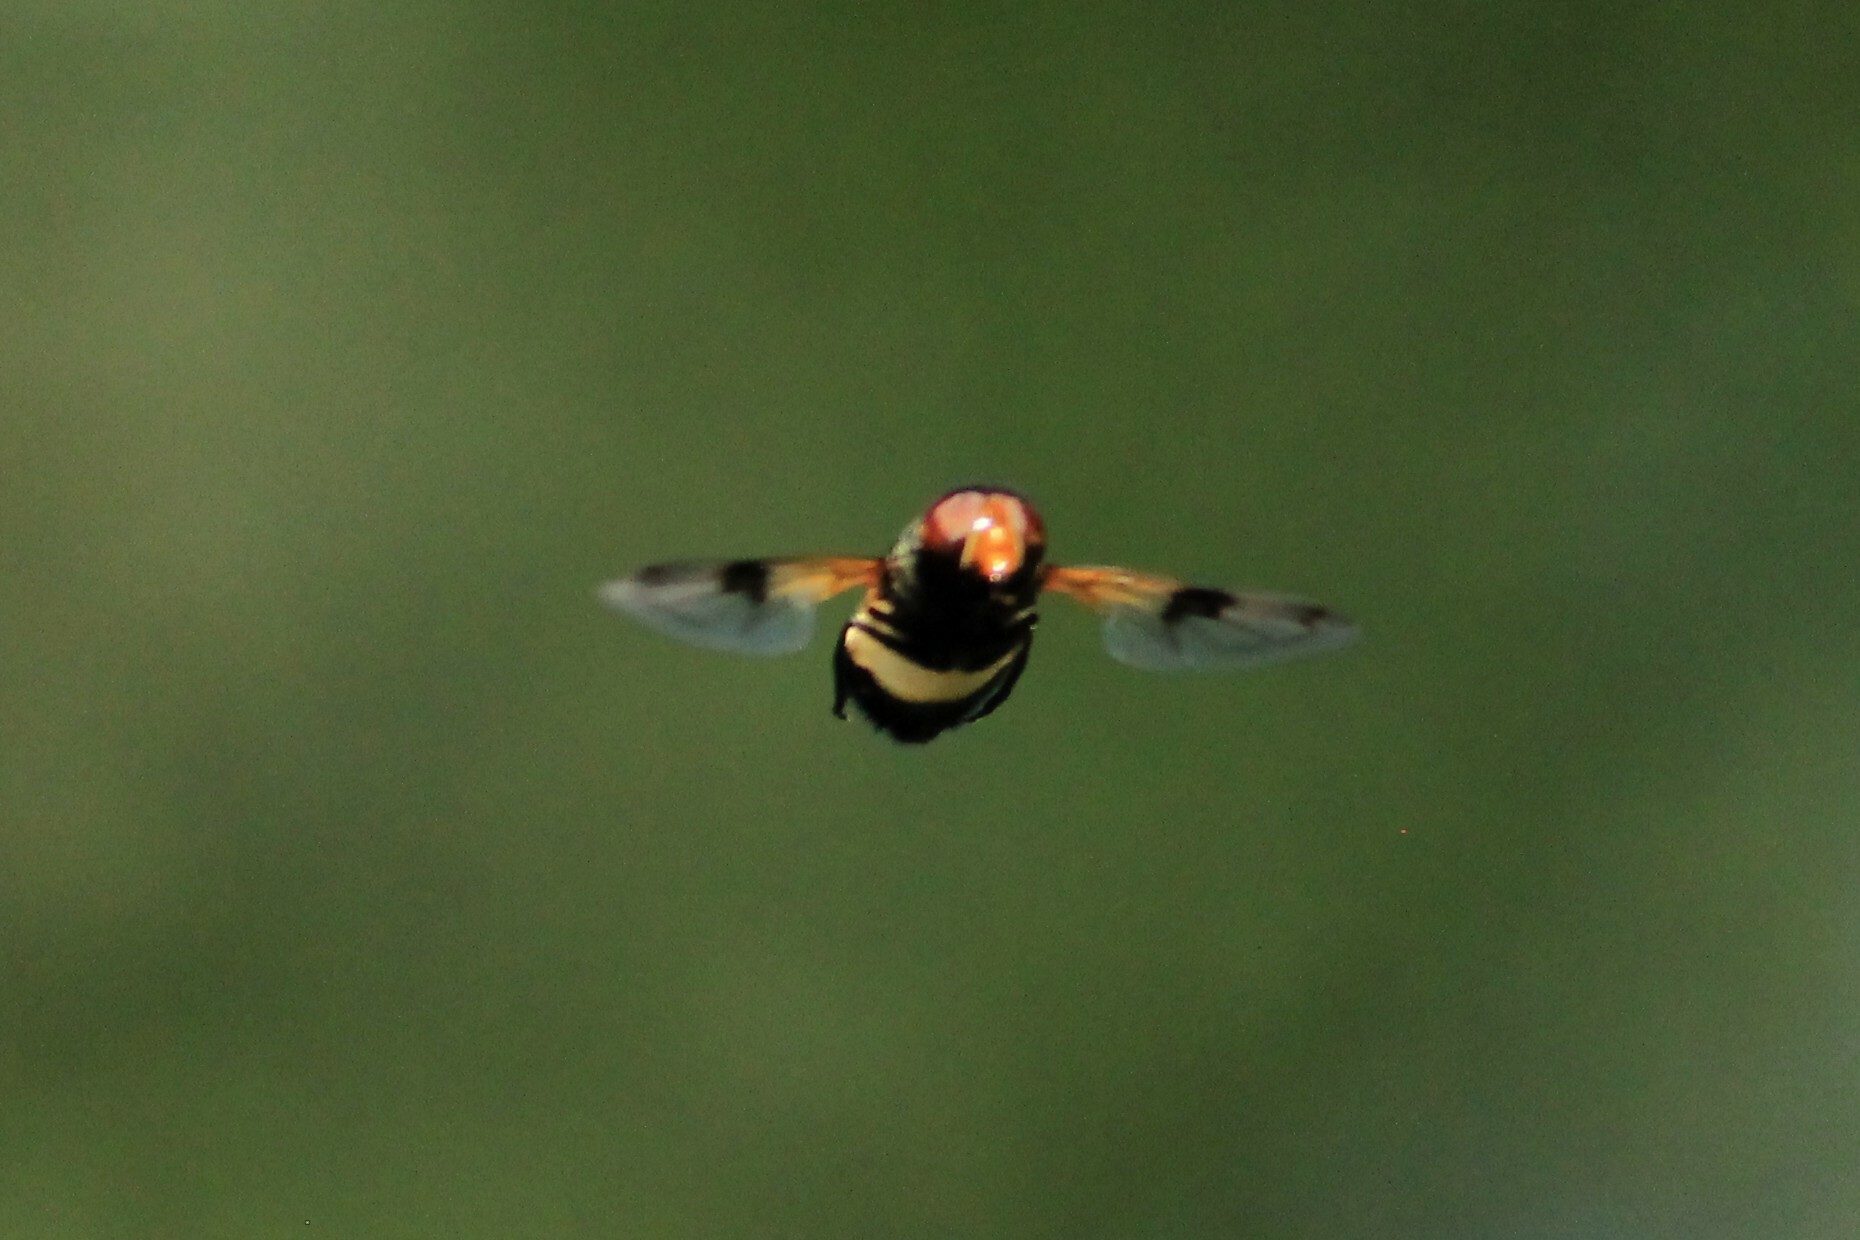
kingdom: Animalia
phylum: Arthropoda
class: Insecta
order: Diptera
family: Syrphidae
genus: Volucella
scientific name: Volucella pellucens
